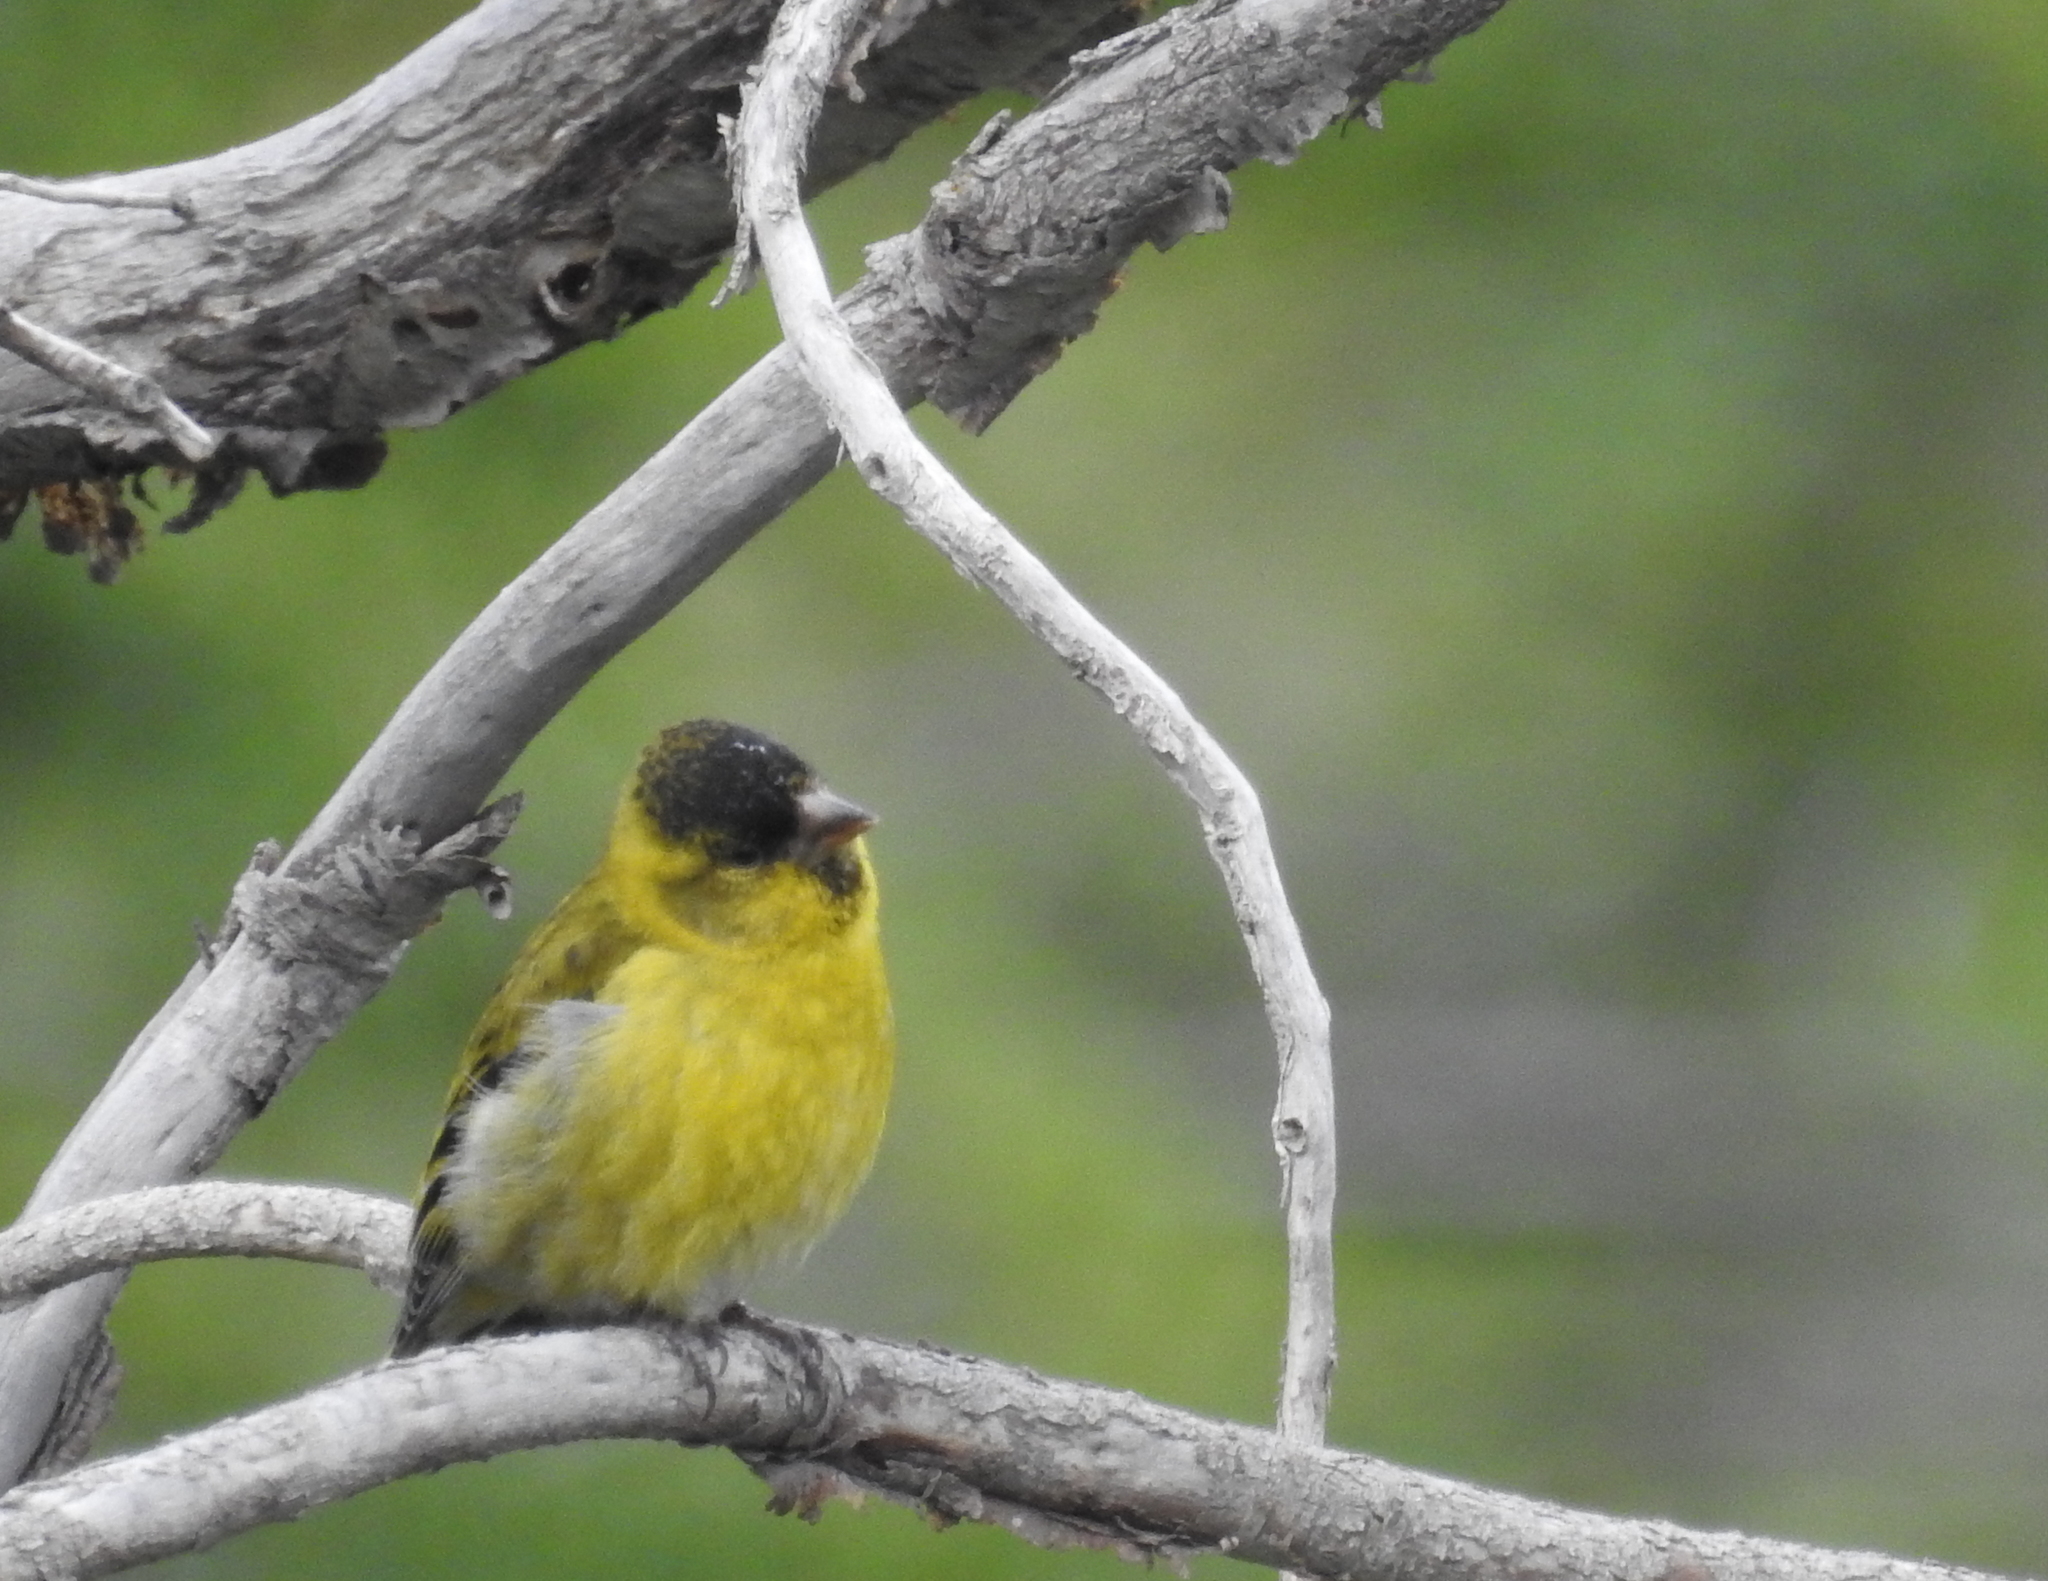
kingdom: Animalia
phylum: Chordata
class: Aves
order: Passeriformes
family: Fringillidae
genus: Spinus
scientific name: Spinus barbatus
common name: Black-chinned siskin
